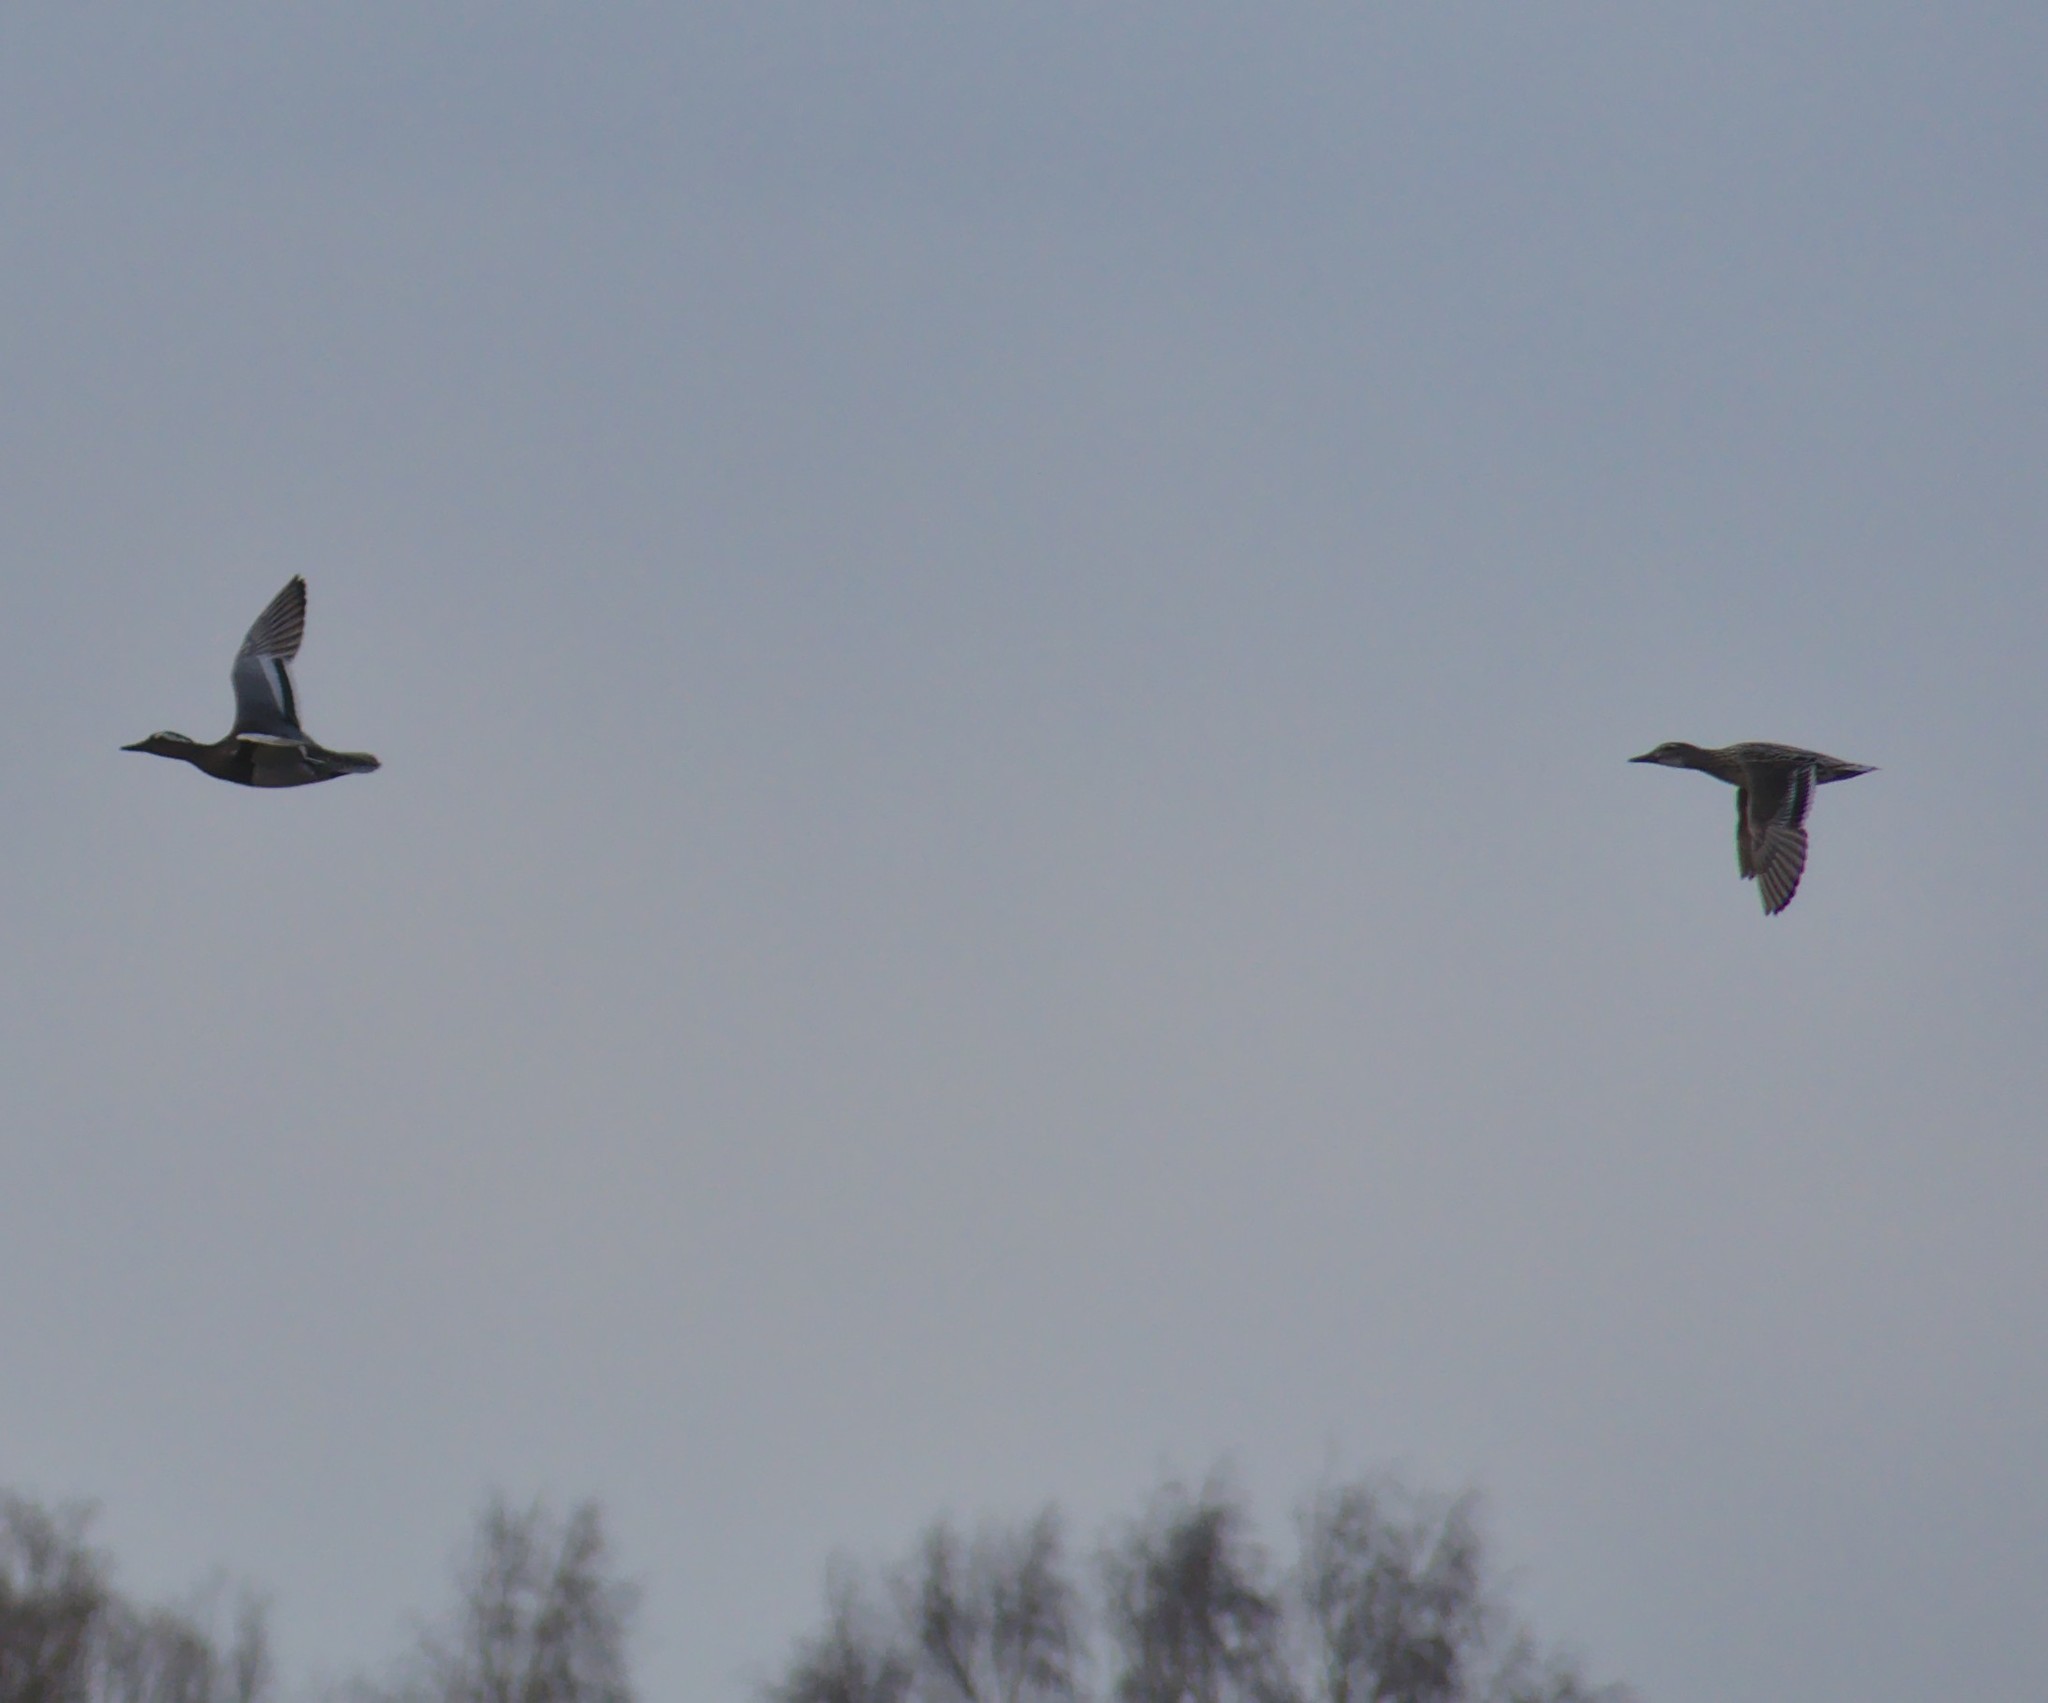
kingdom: Animalia
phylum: Chordata
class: Aves
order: Anseriformes
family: Anatidae
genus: Spatula
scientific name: Spatula querquedula
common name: Garganey
